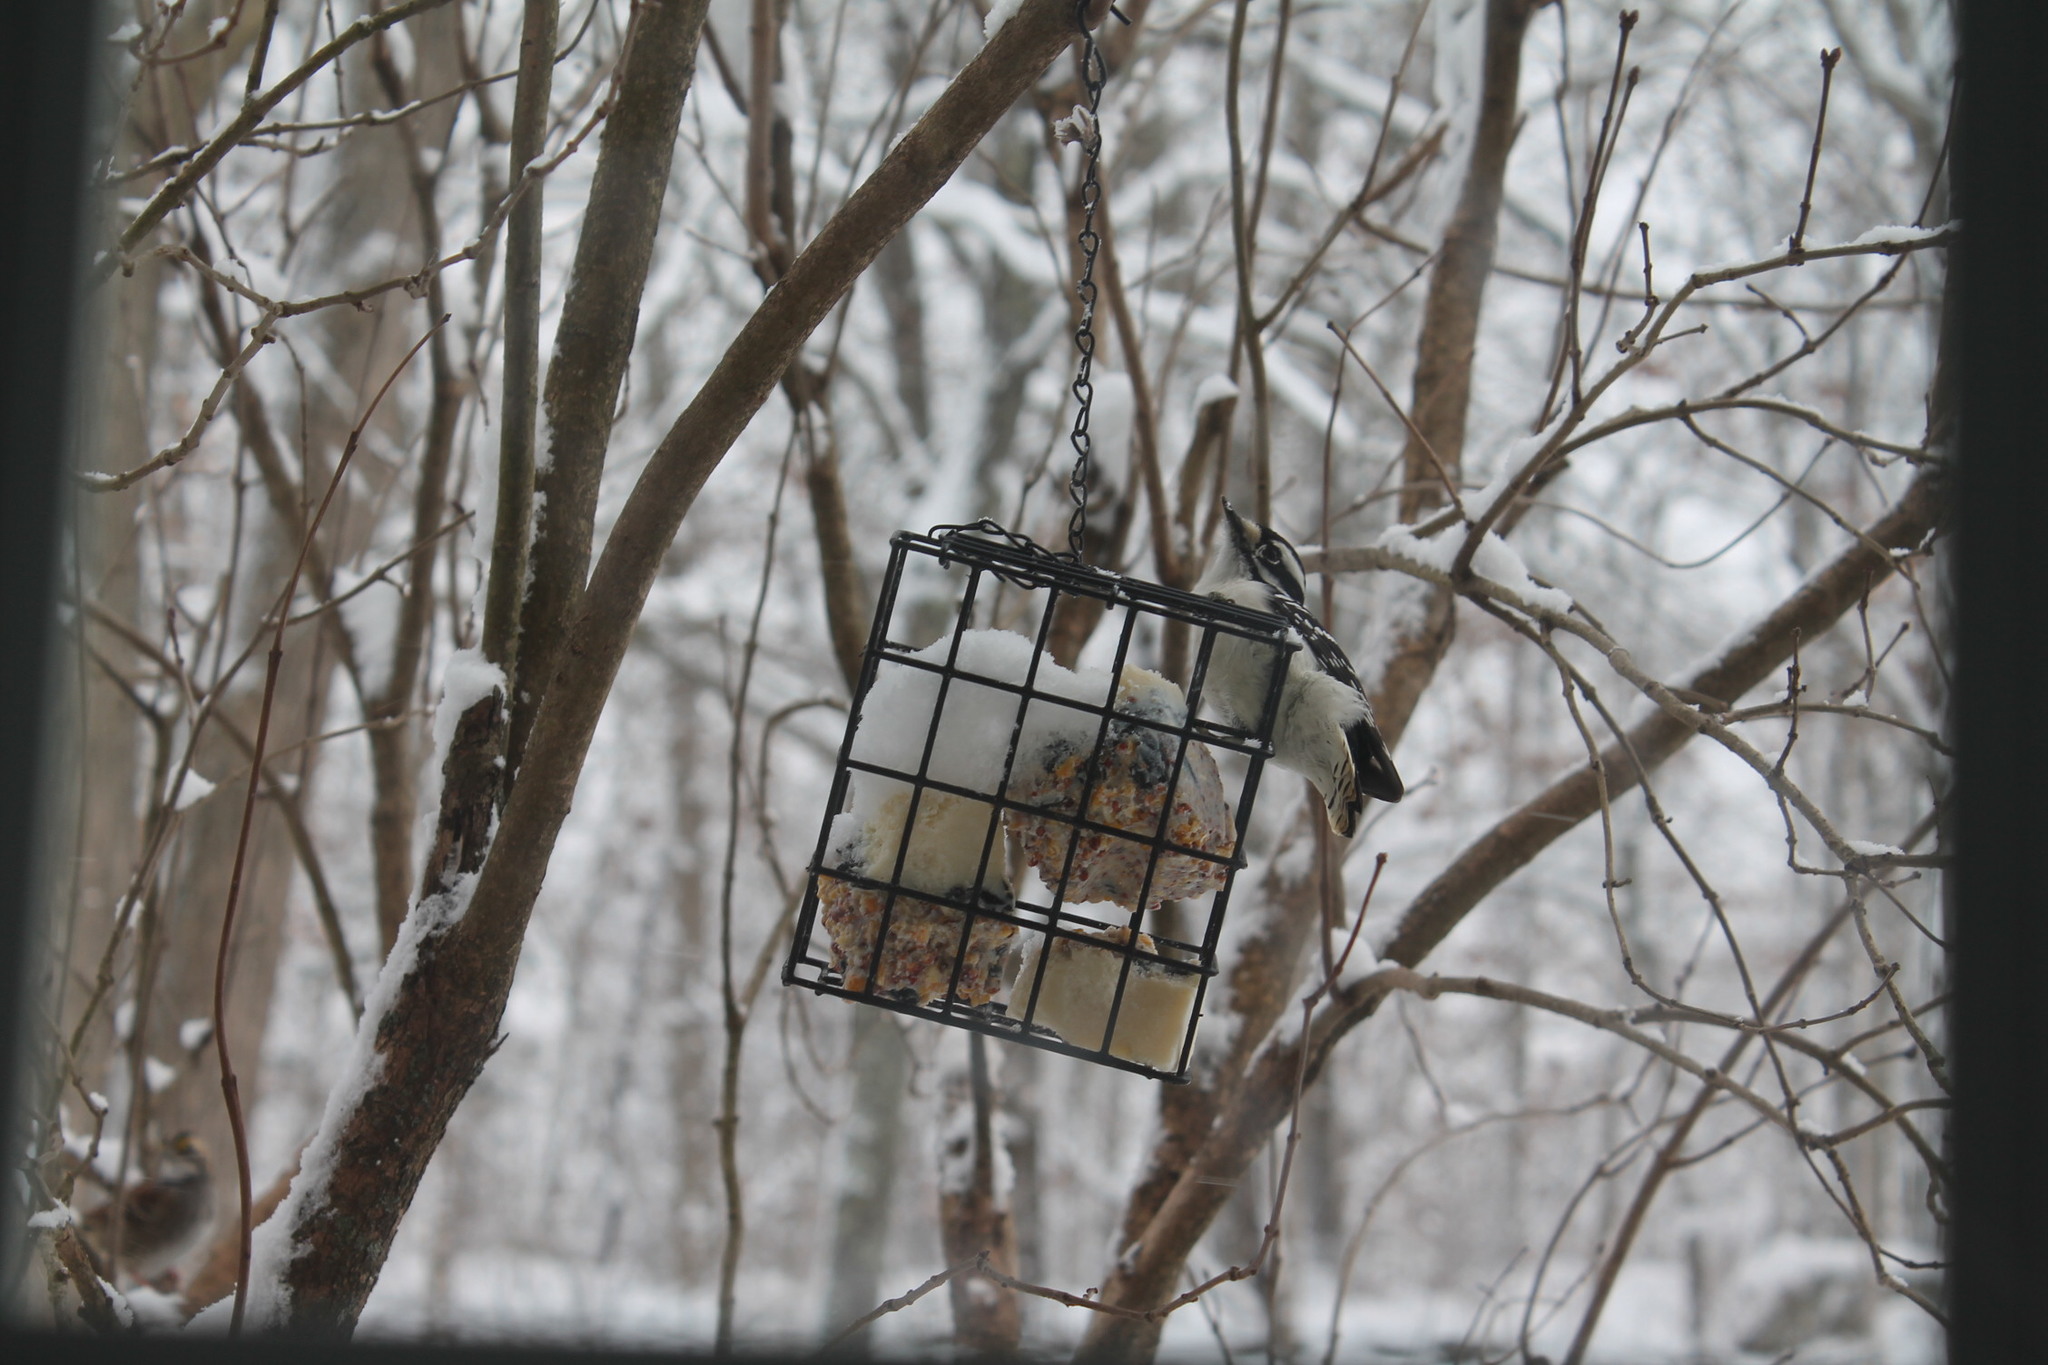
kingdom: Animalia
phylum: Chordata
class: Aves
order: Piciformes
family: Picidae
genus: Dryobates
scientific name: Dryobates pubescens
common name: Downy woodpecker
